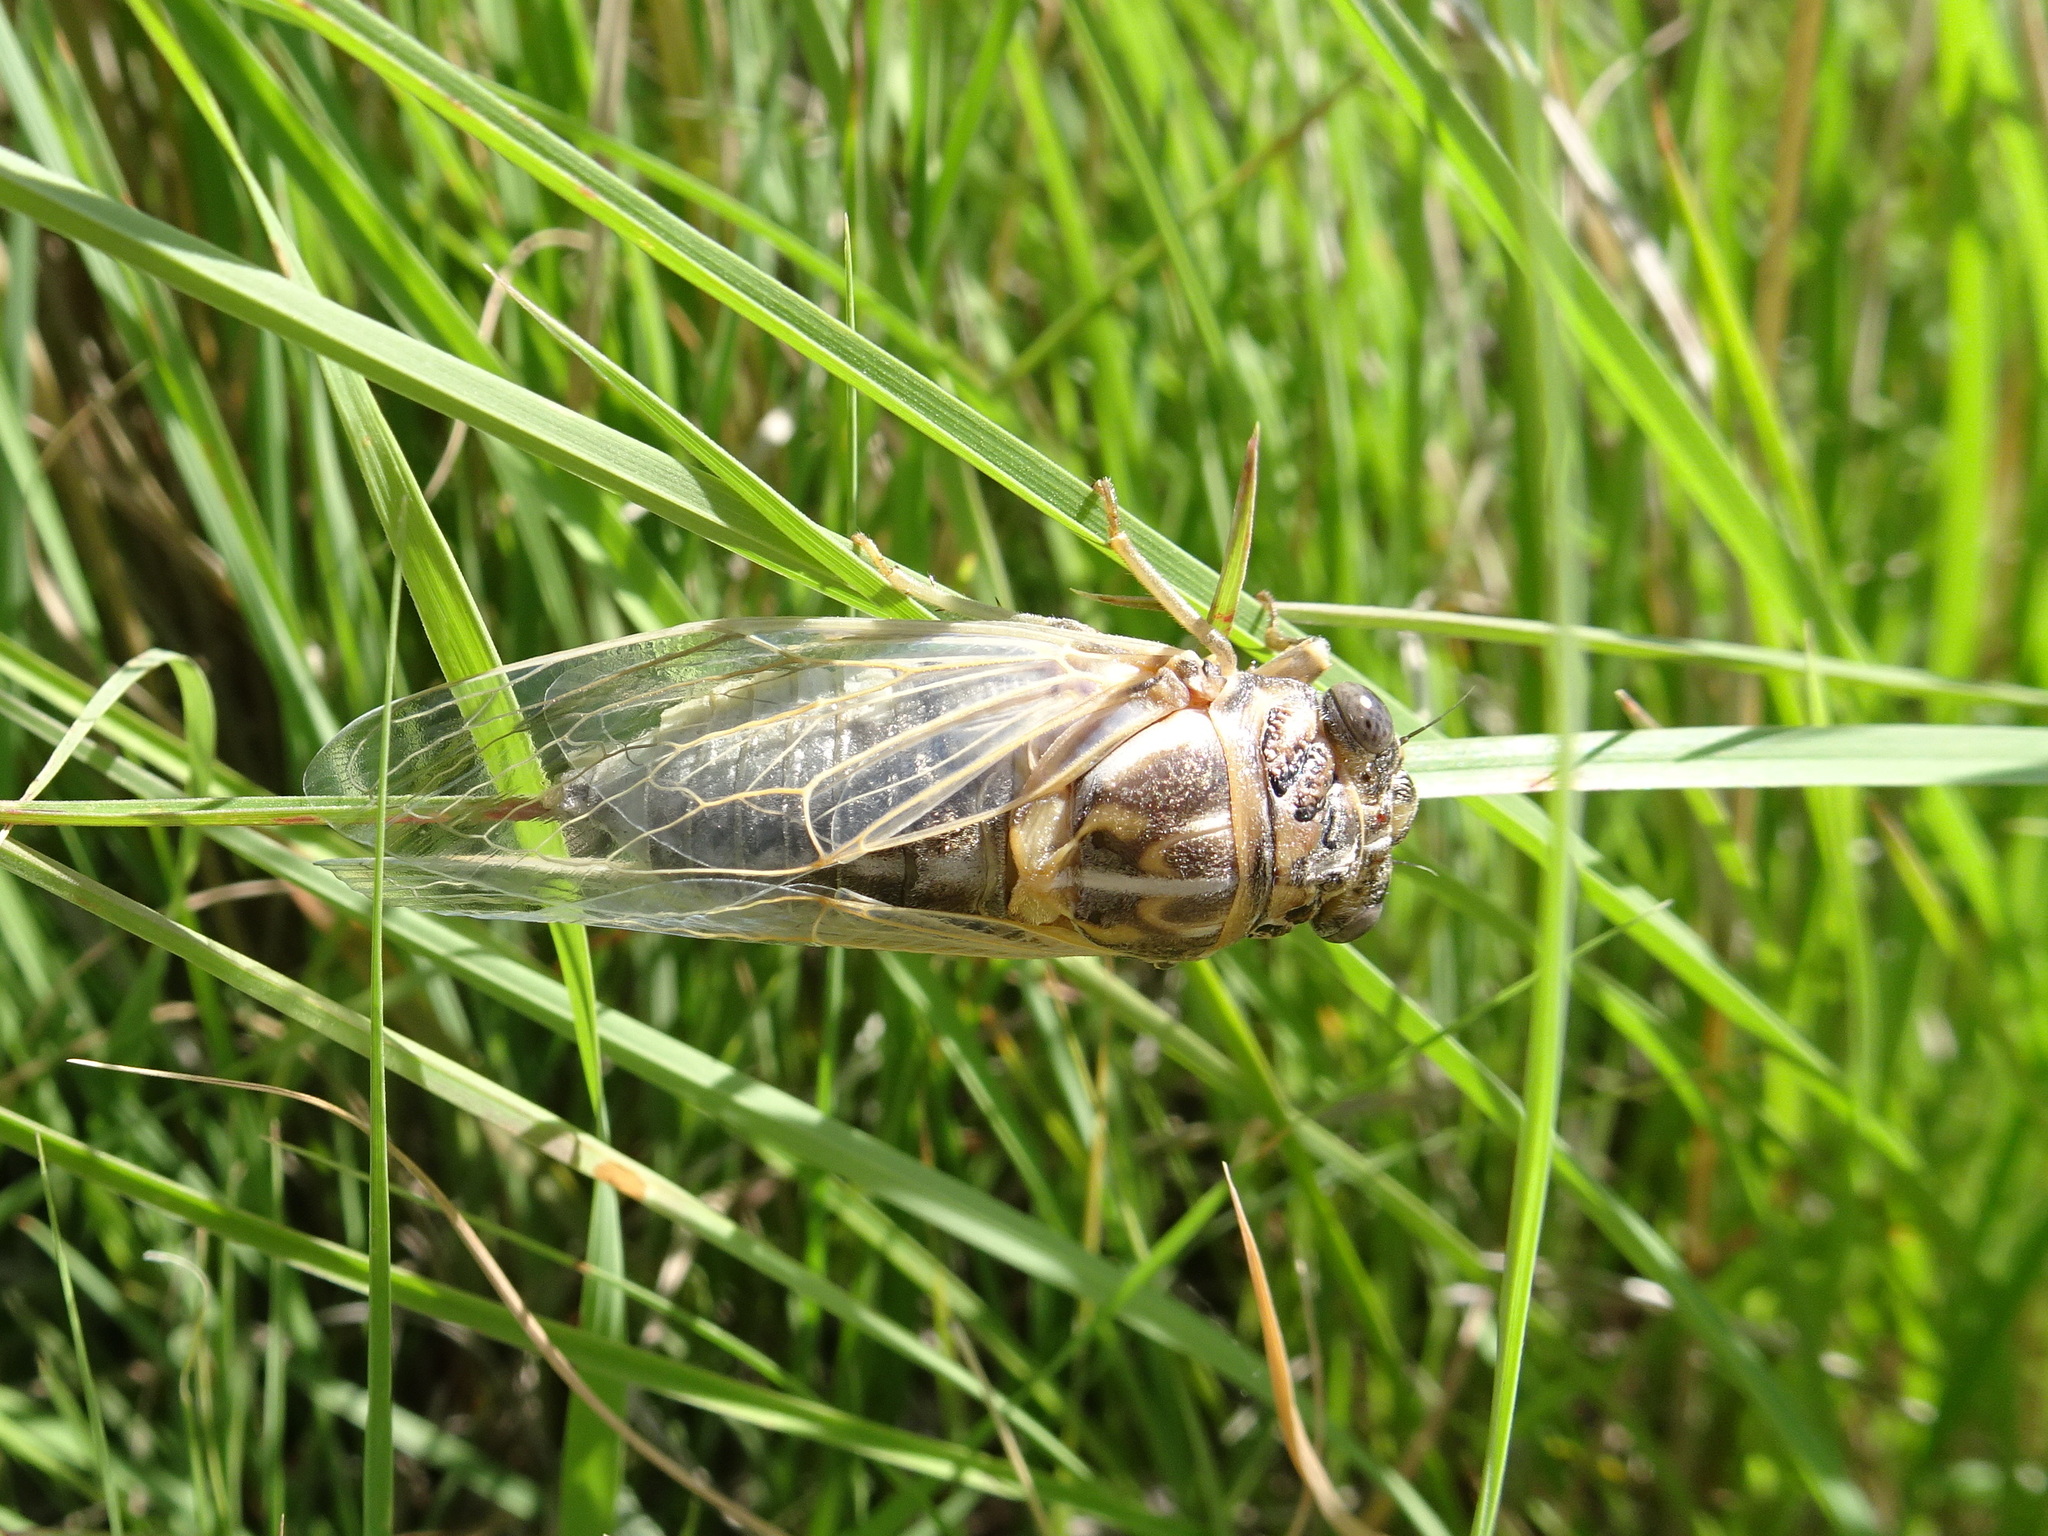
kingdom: Animalia
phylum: Arthropoda
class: Insecta
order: Hemiptera
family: Cicadidae
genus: Hadoa
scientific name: Hadoa bifida
